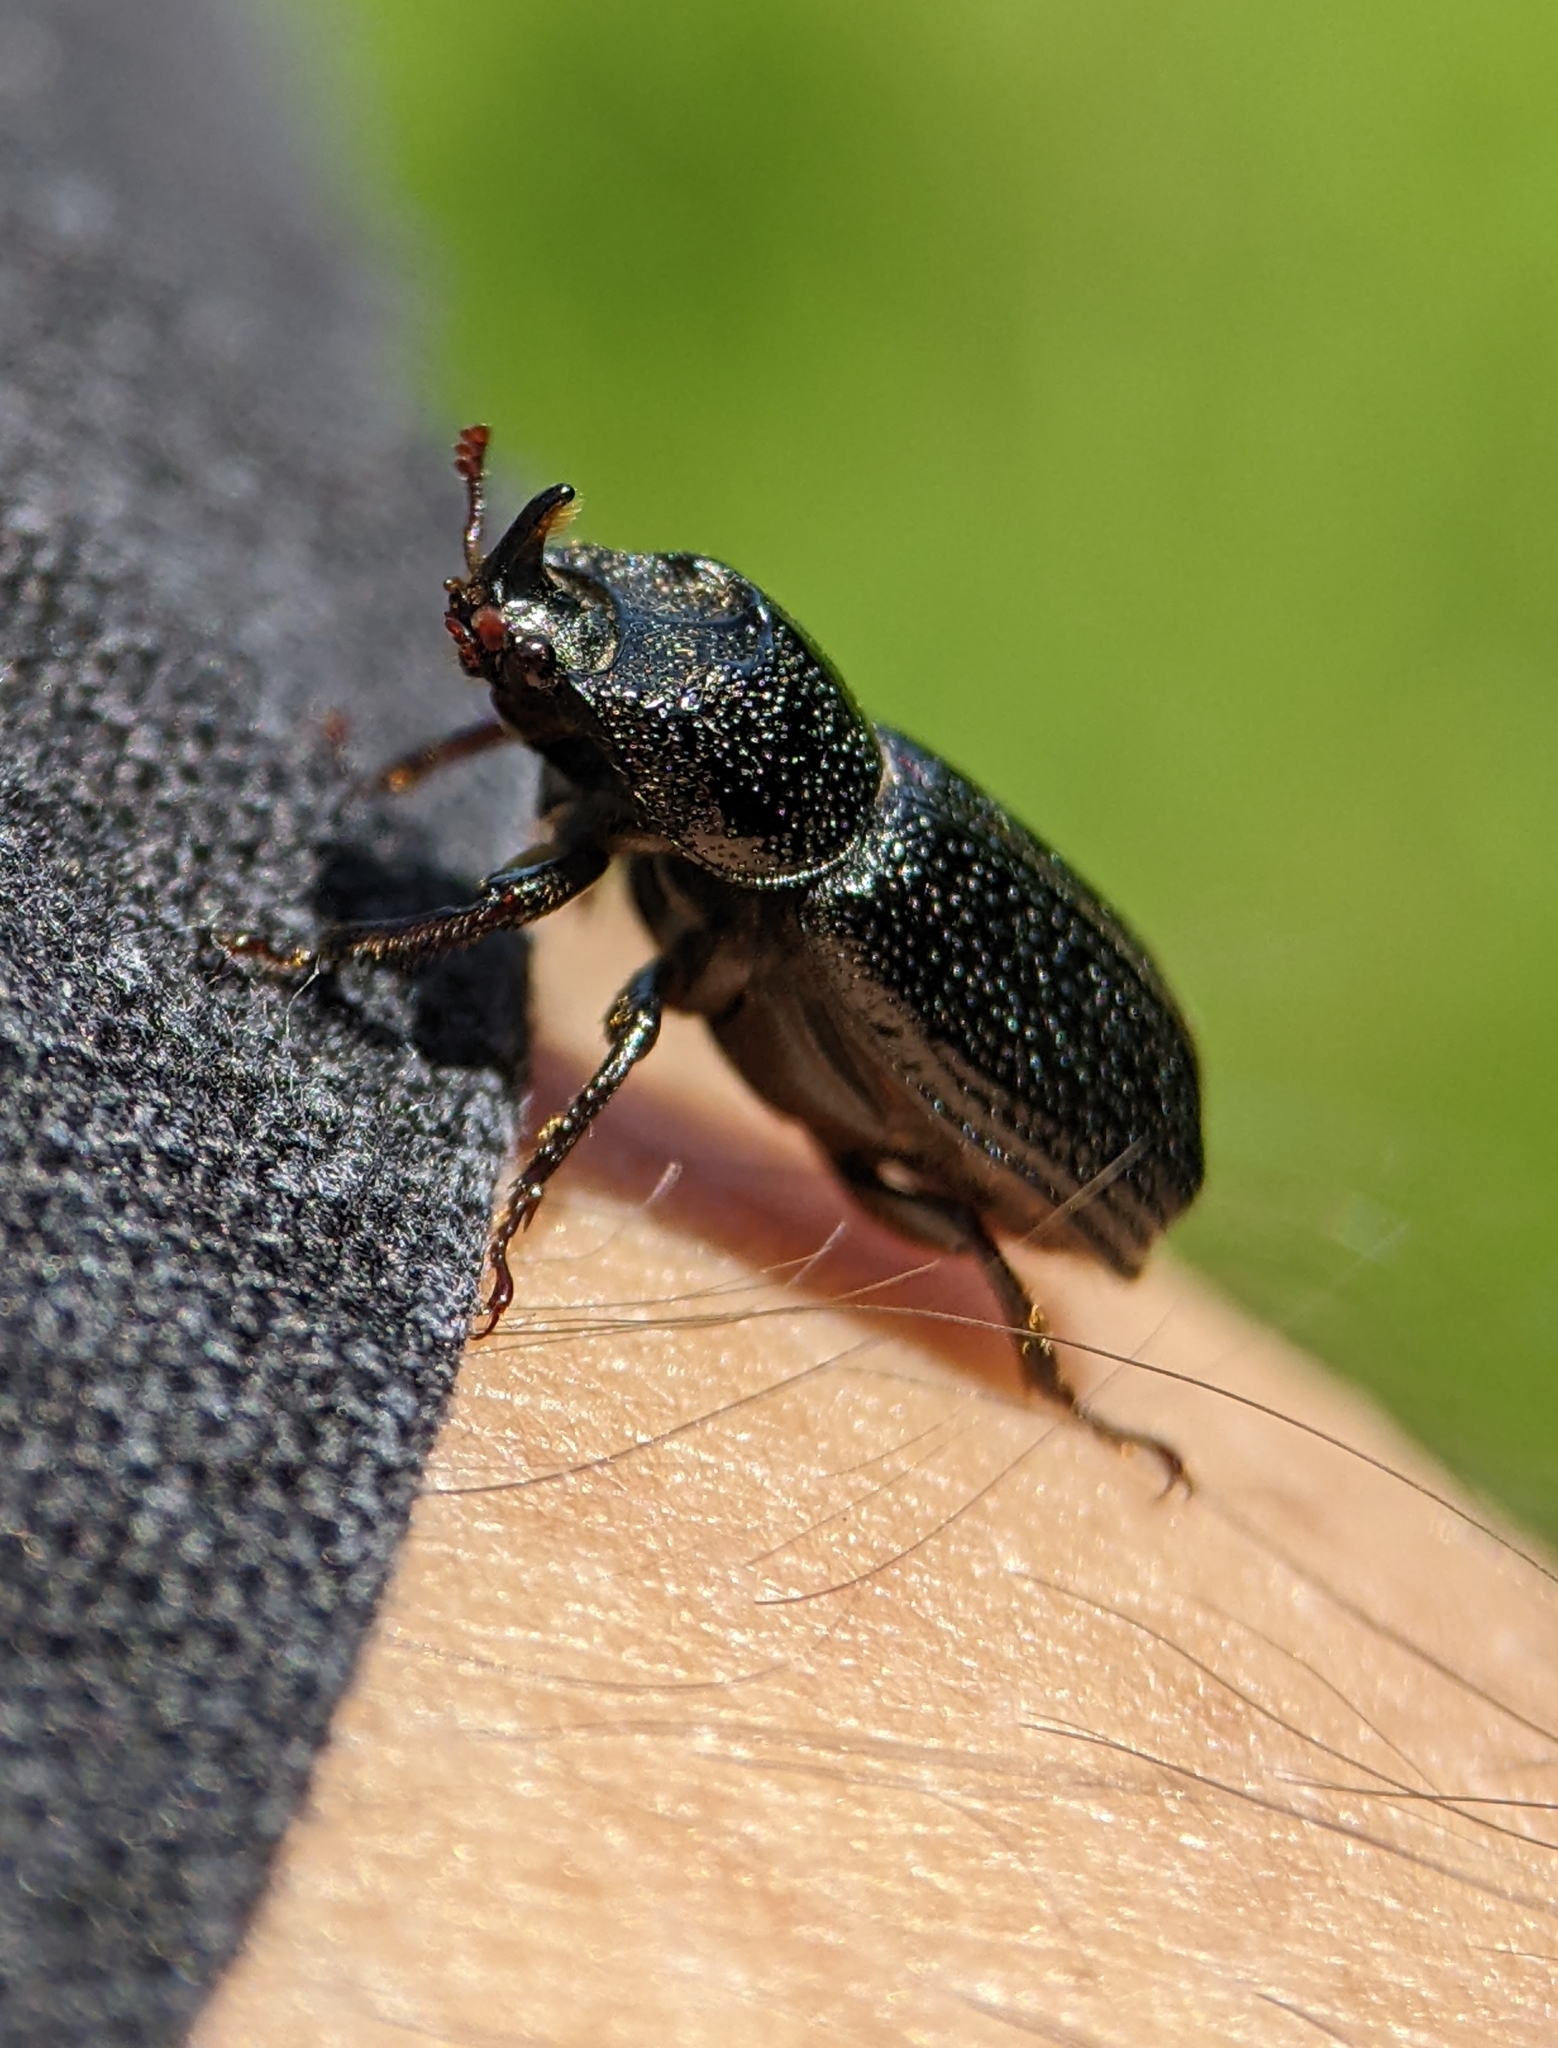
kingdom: Animalia
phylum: Arthropoda
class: Insecta
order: Coleoptera
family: Lucanidae
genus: Sinodendron
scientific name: Sinodendron cylindricum
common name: Rhinoceros beetle
